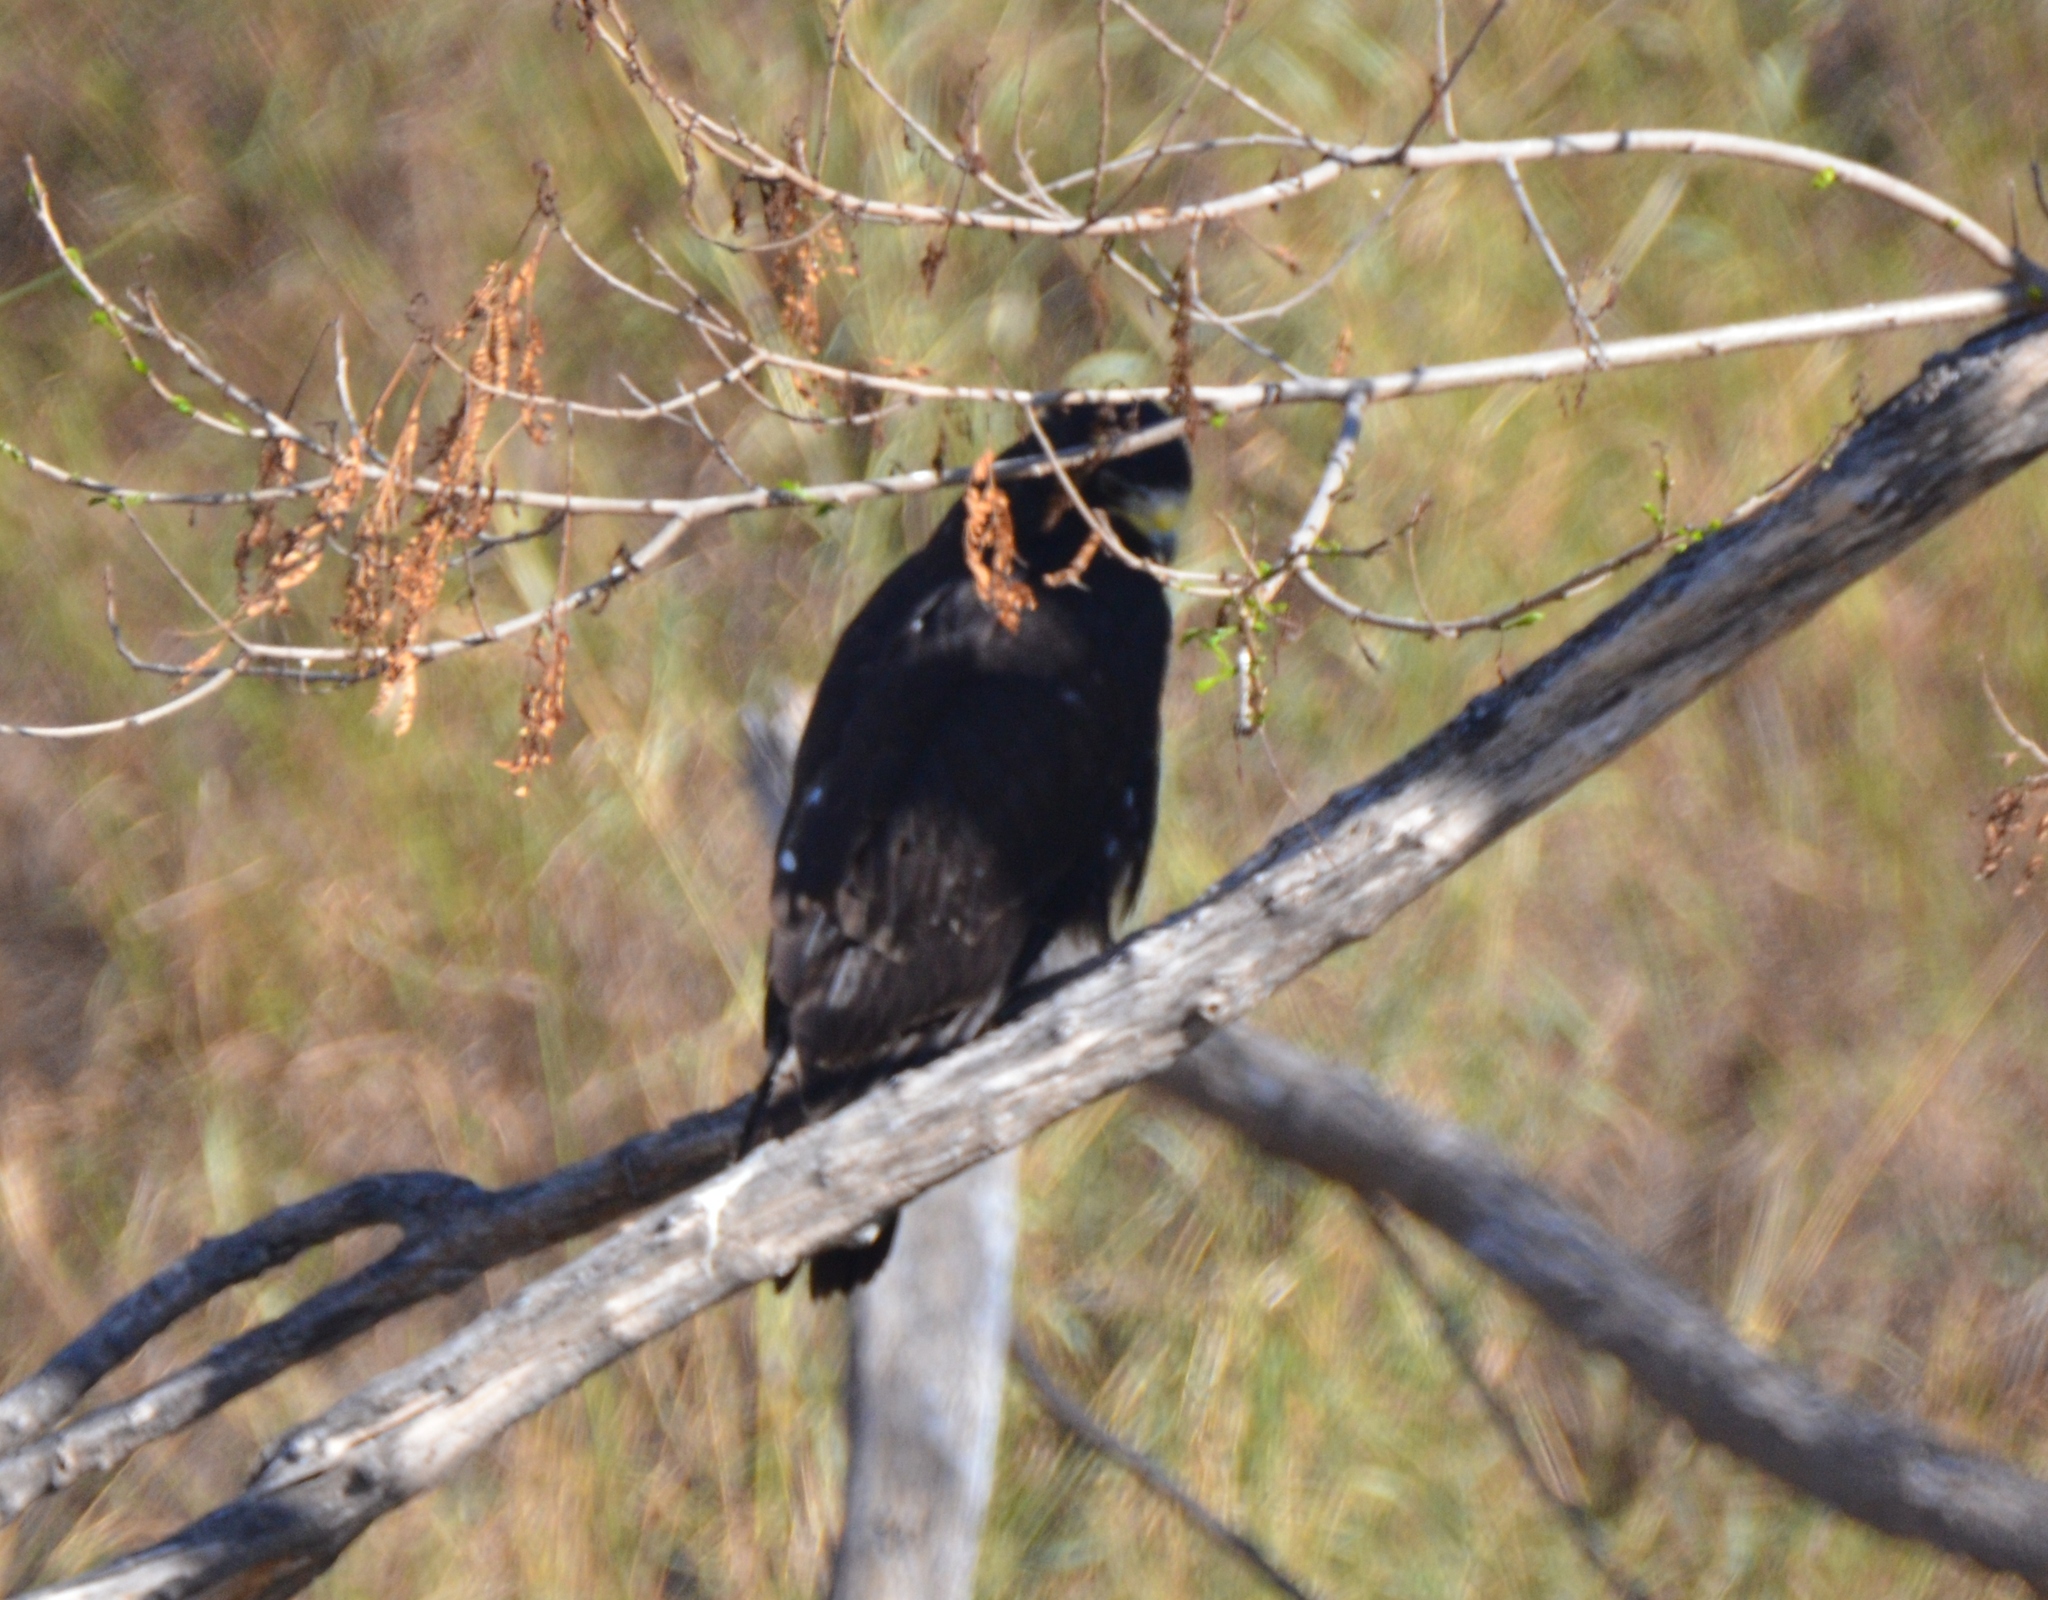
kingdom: Animalia
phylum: Chordata
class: Aves
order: Accipitriformes
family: Accipitridae
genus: Buteo
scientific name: Buteo albonotatus
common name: Zone-tailed hawk
